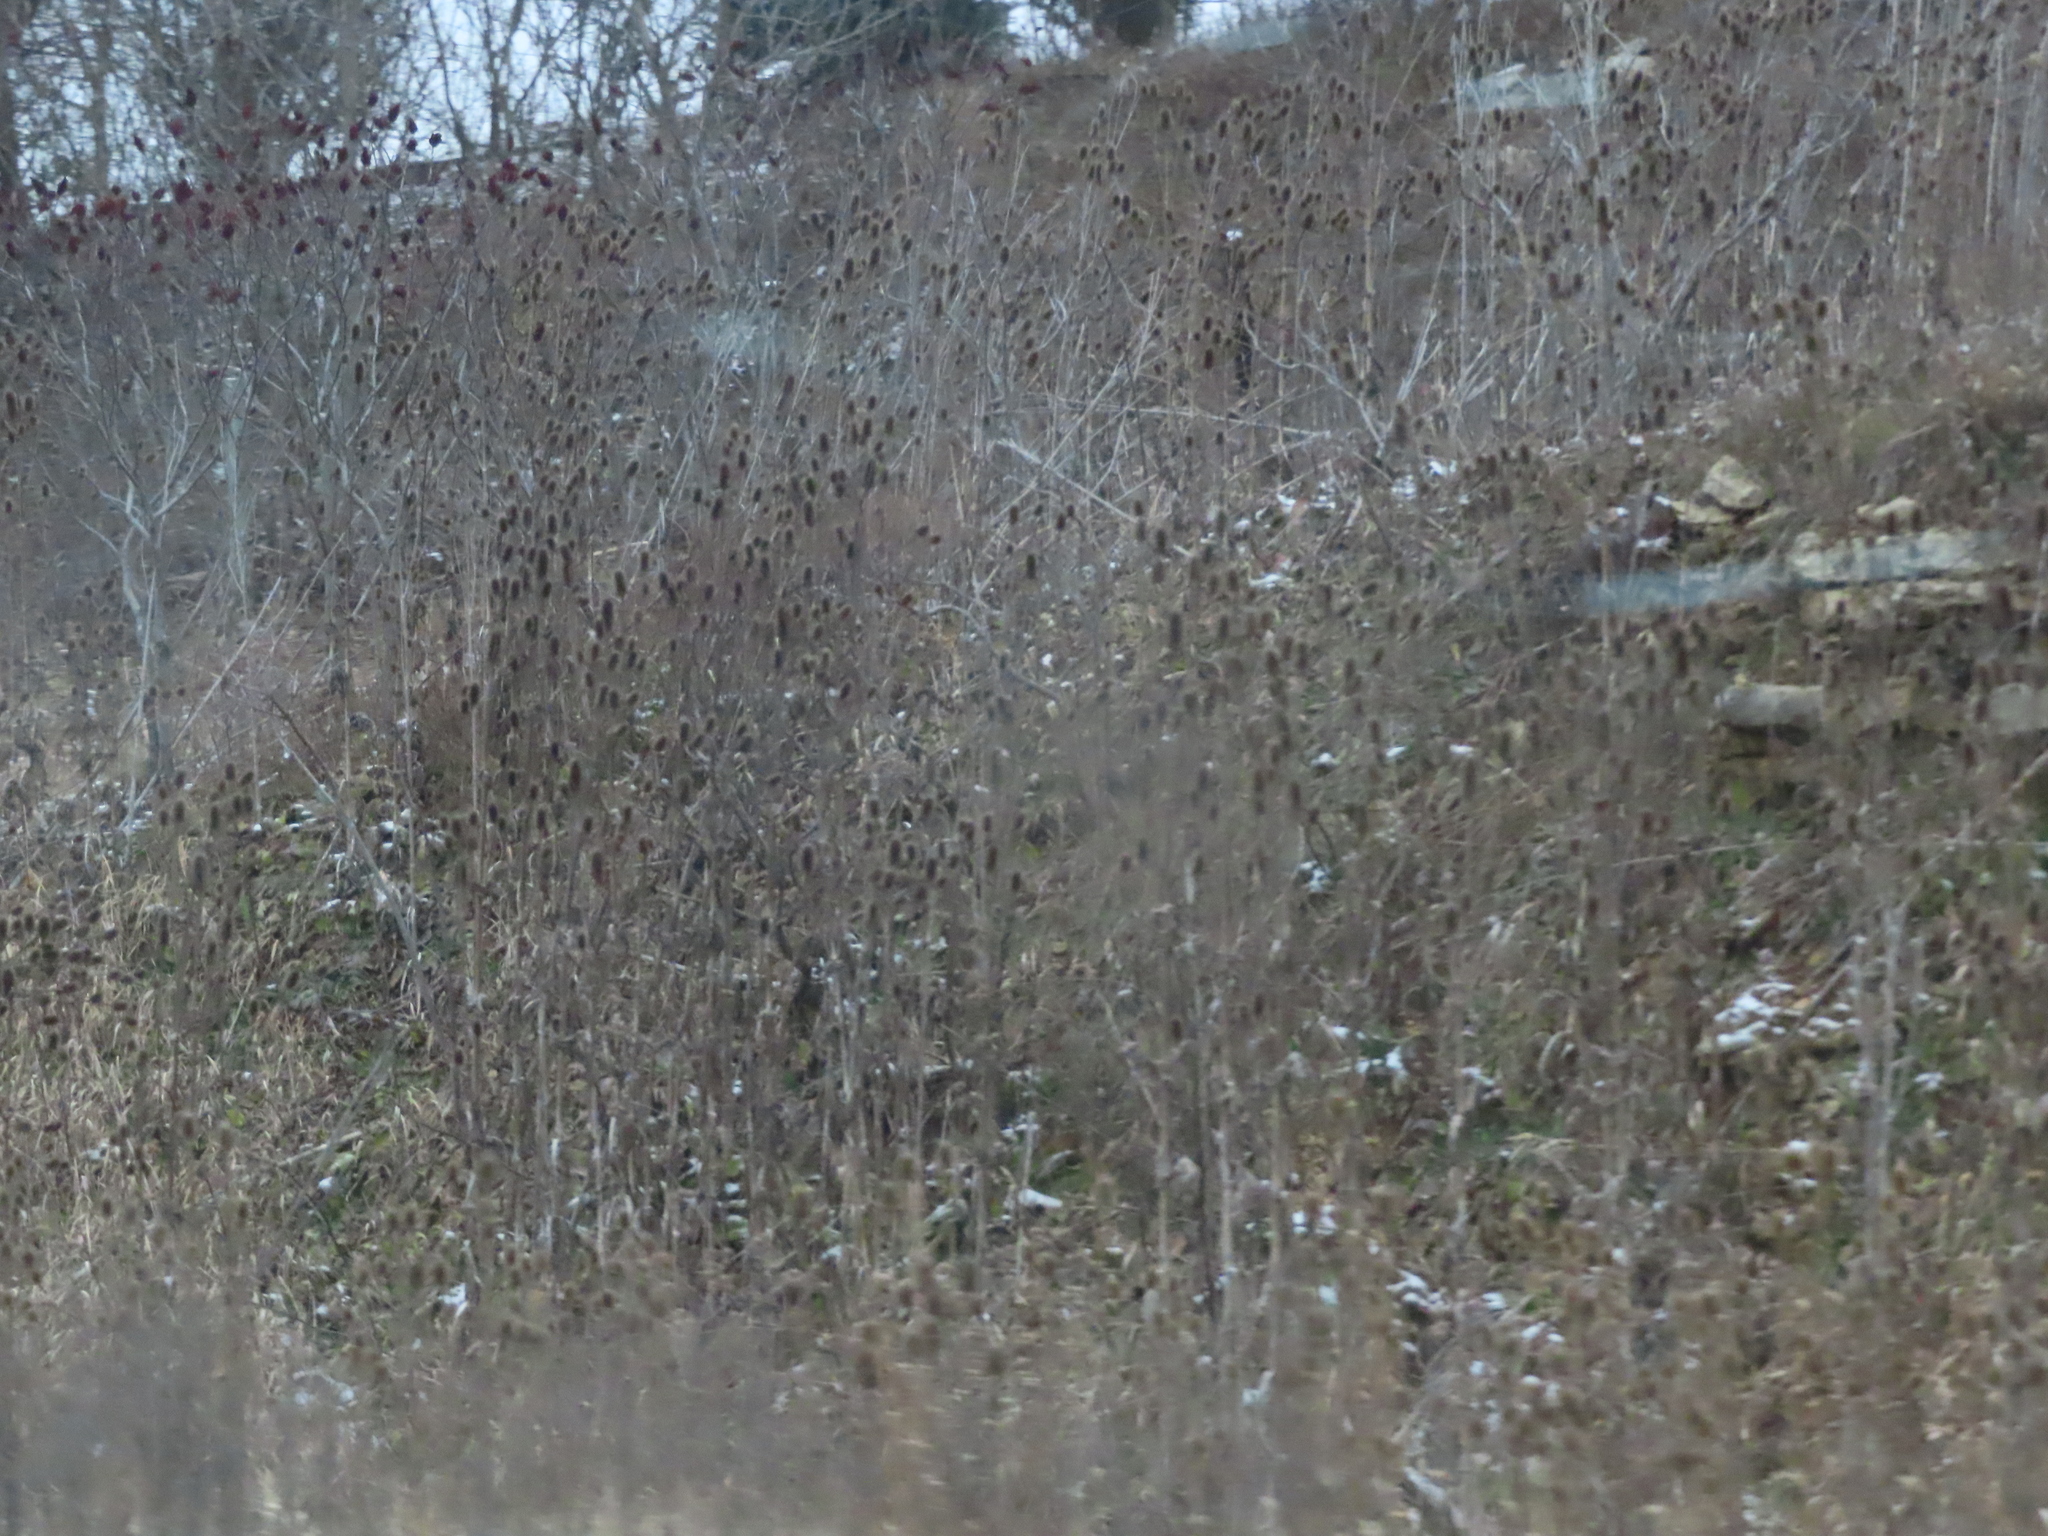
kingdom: Plantae
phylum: Tracheophyta
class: Magnoliopsida
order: Dipsacales
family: Caprifoliaceae
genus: Dipsacus
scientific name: Dipsacus laciniatus
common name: Cut-leaved teasel
